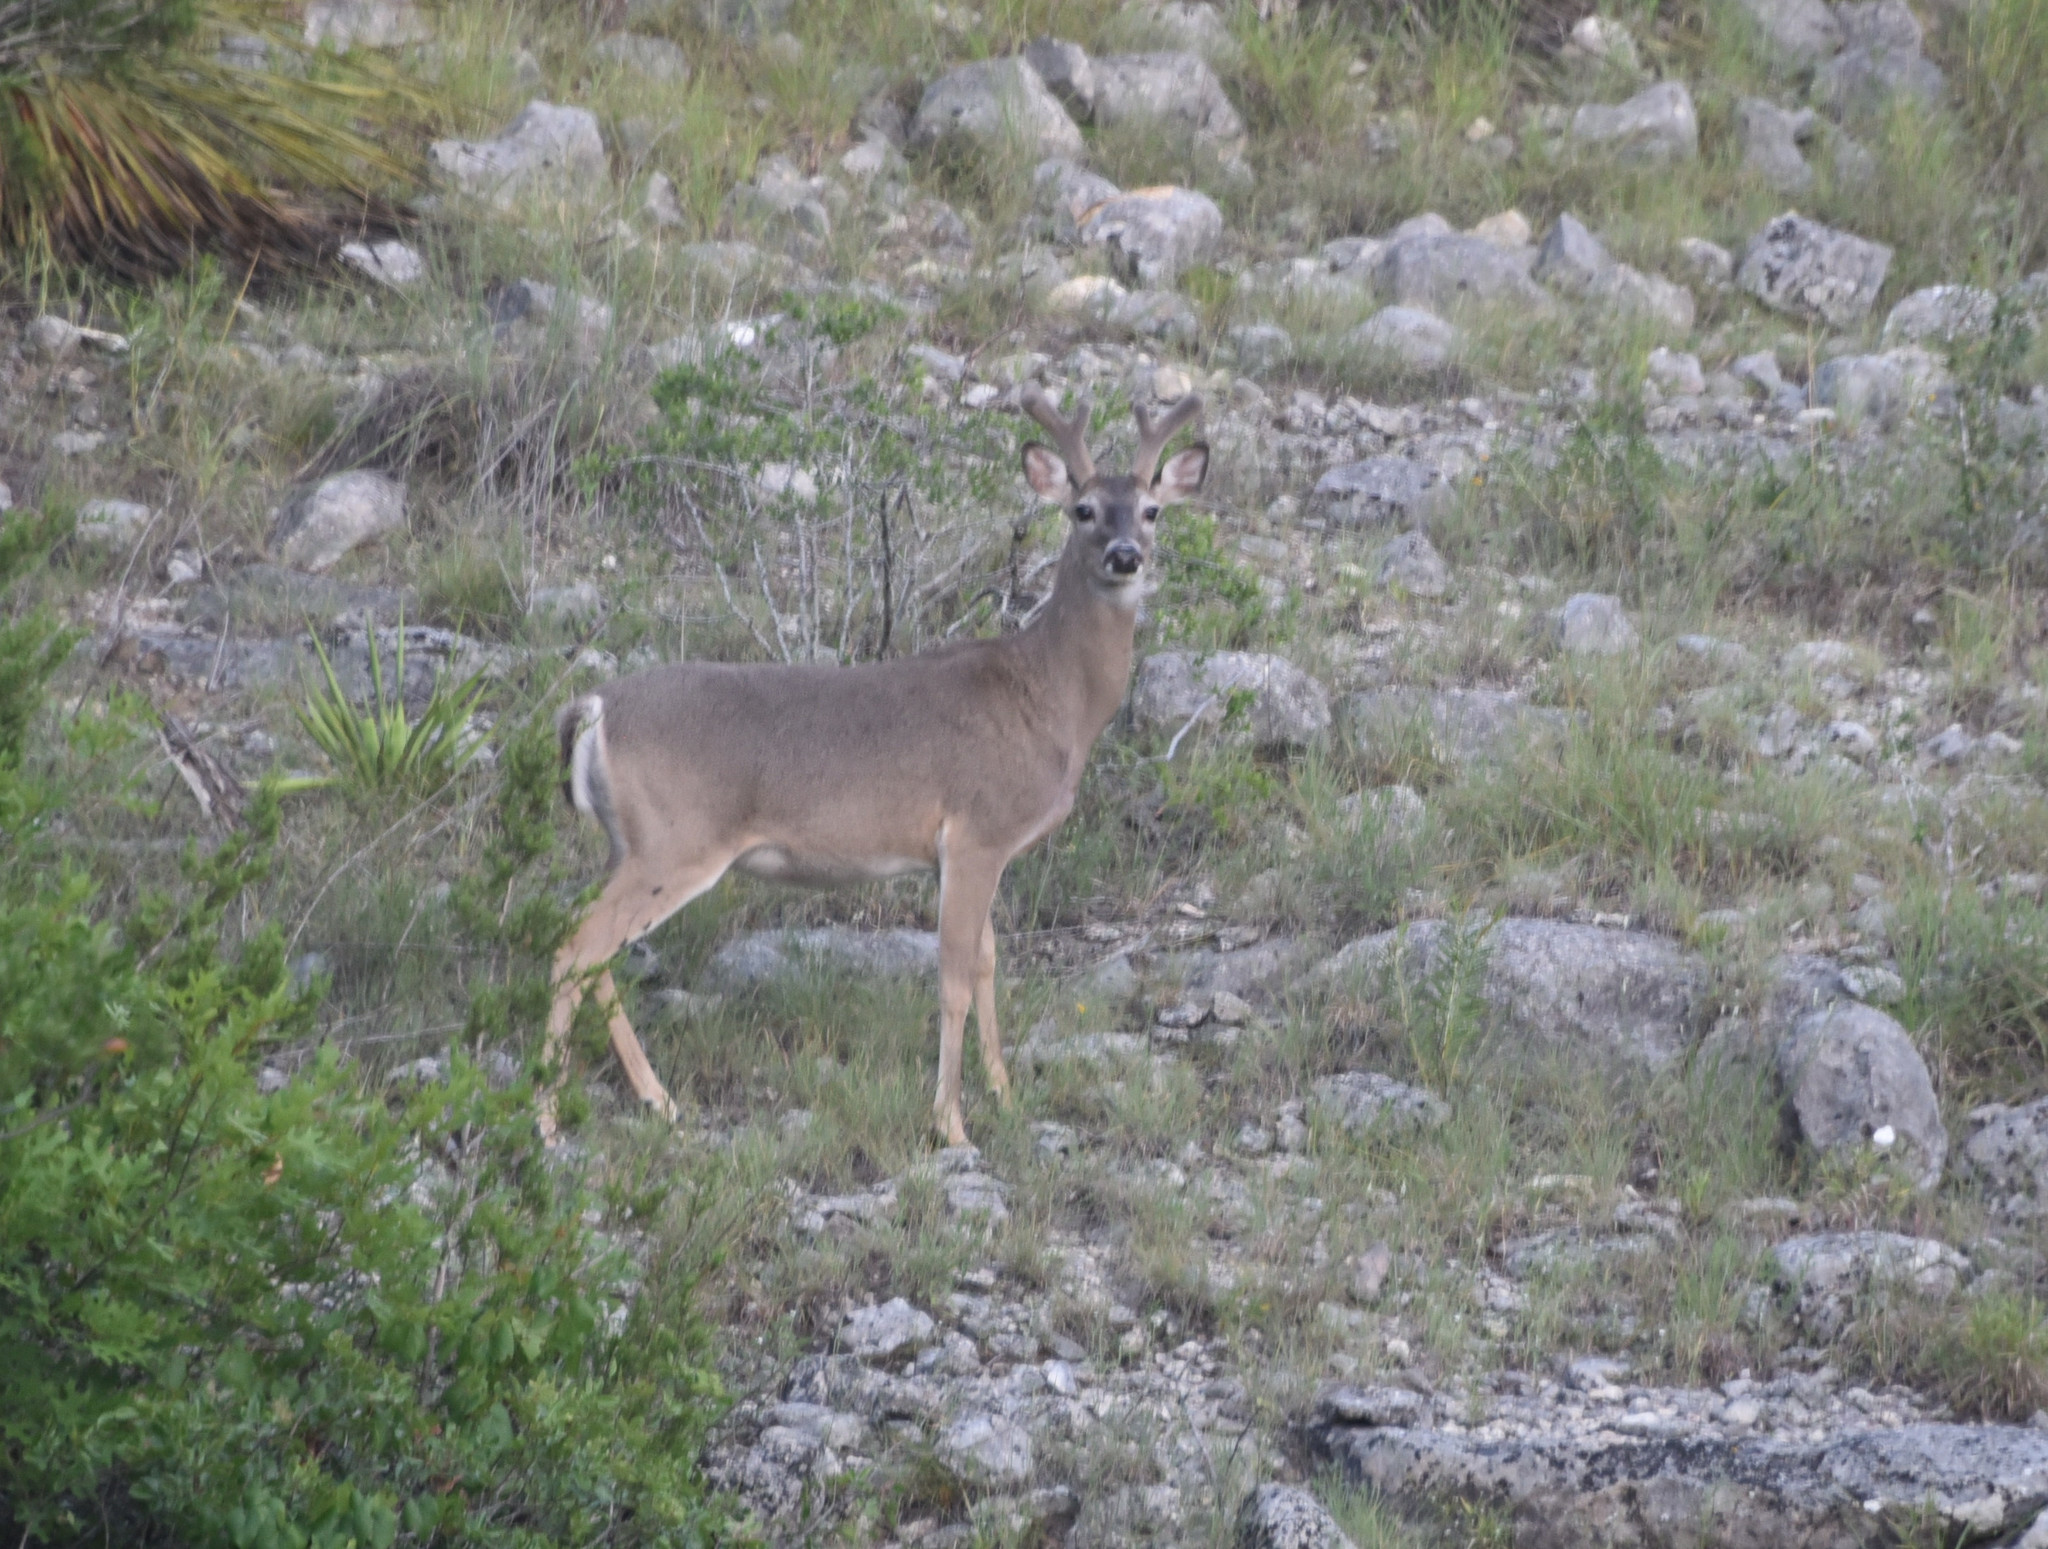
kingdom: Animalia
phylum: Chordata
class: Mammalia
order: Artiodactyla
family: Cervidae
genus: Odocoileus
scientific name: Odocoileus virginianus
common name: White-tailed deer
